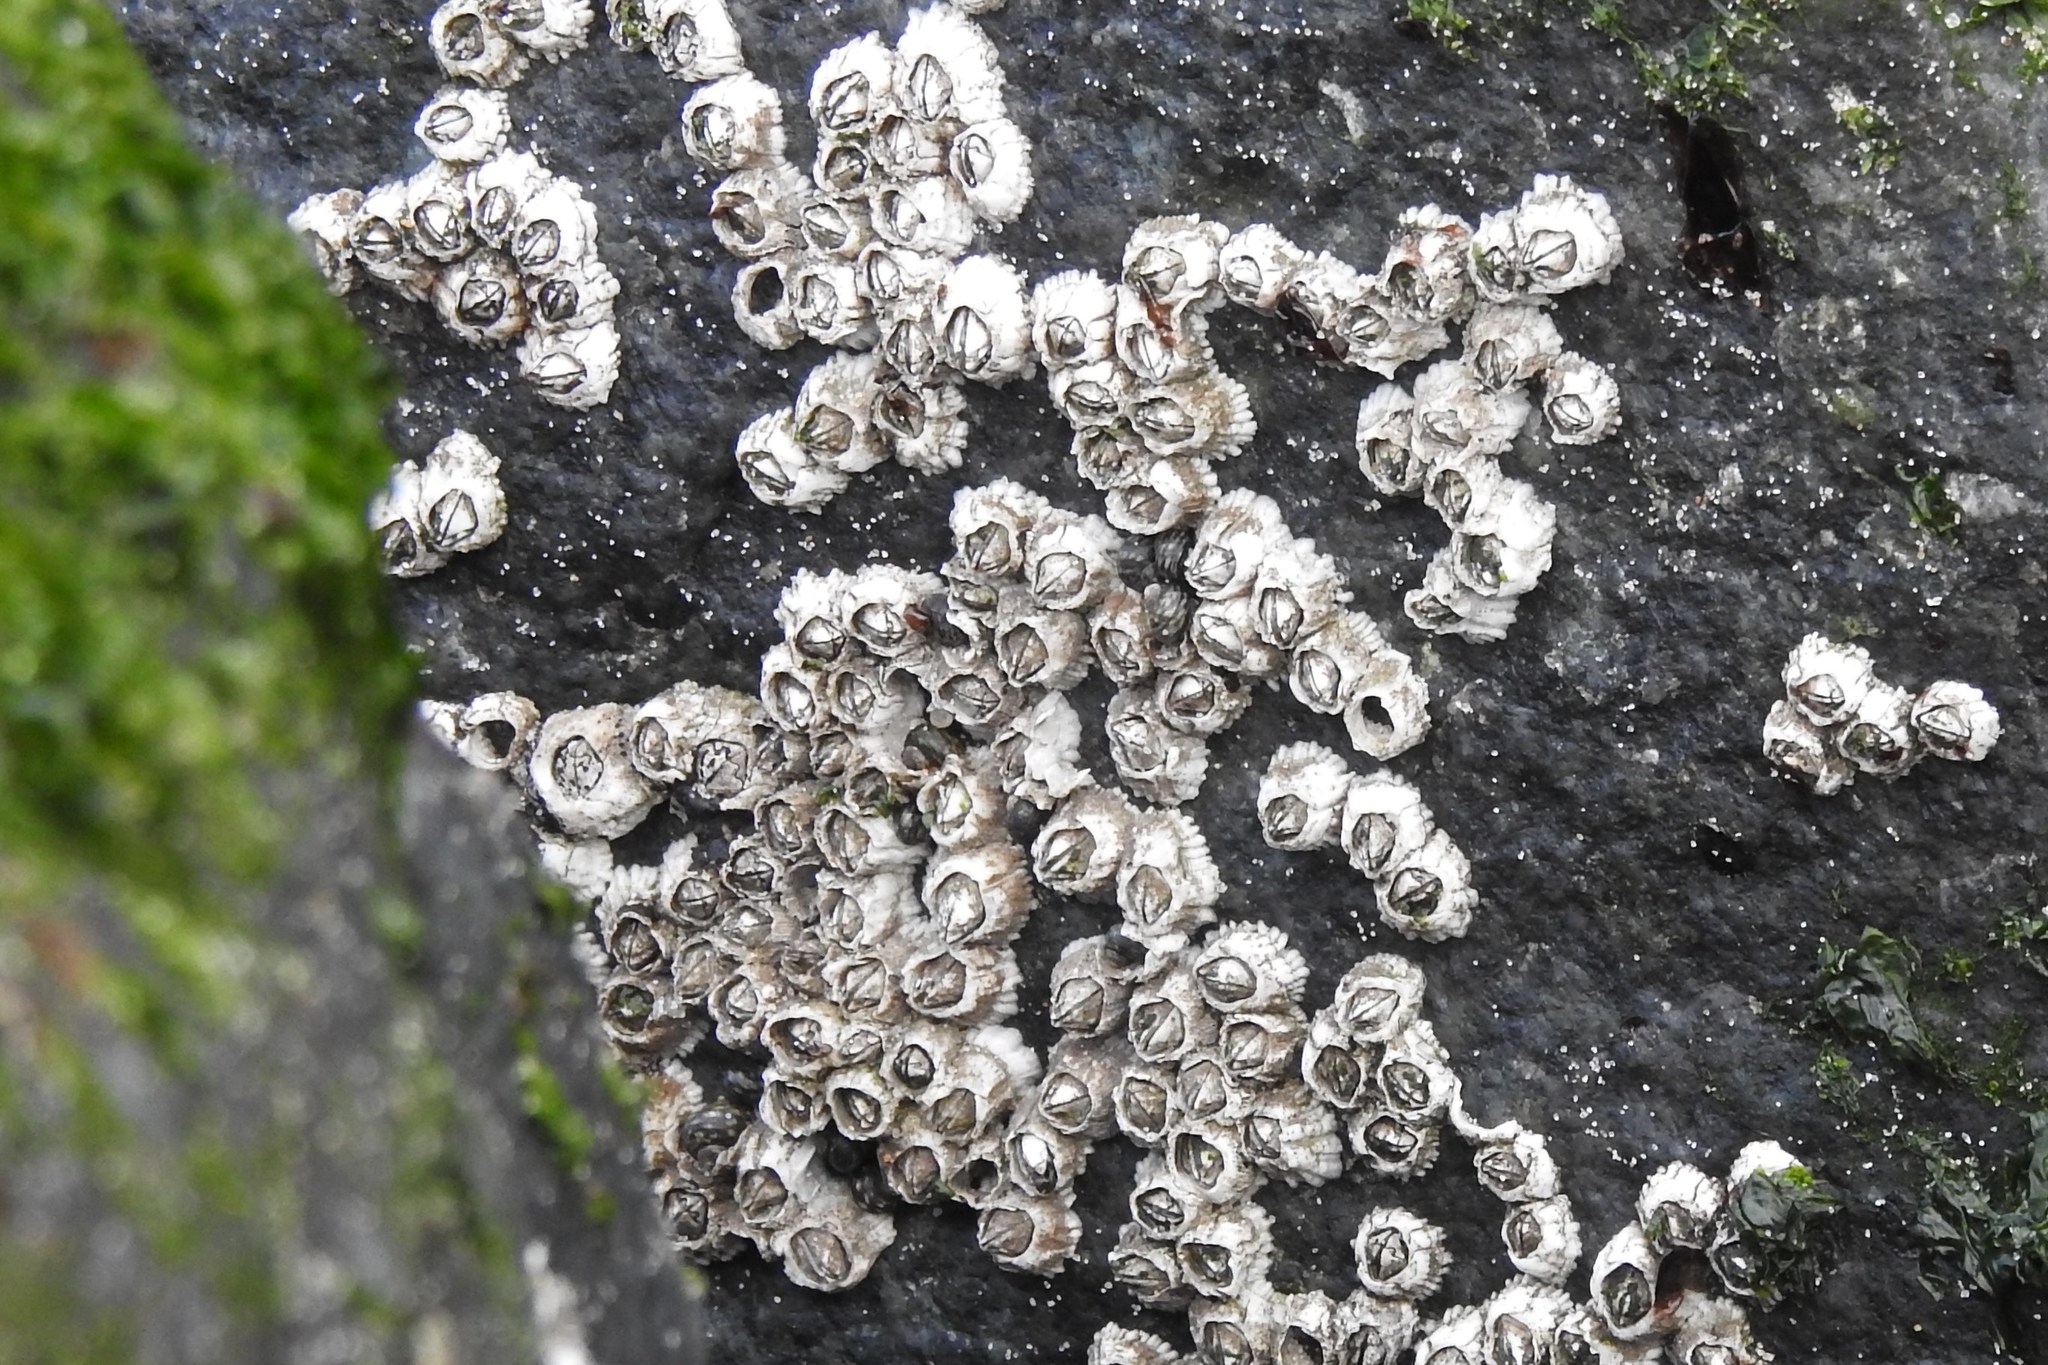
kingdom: Animalia
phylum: Arthropoda
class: Maxillopoda
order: Sessilia
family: Archaeobalanidae
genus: Semibalanus
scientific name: Semibalanus balanoides
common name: Acorn barnacle
